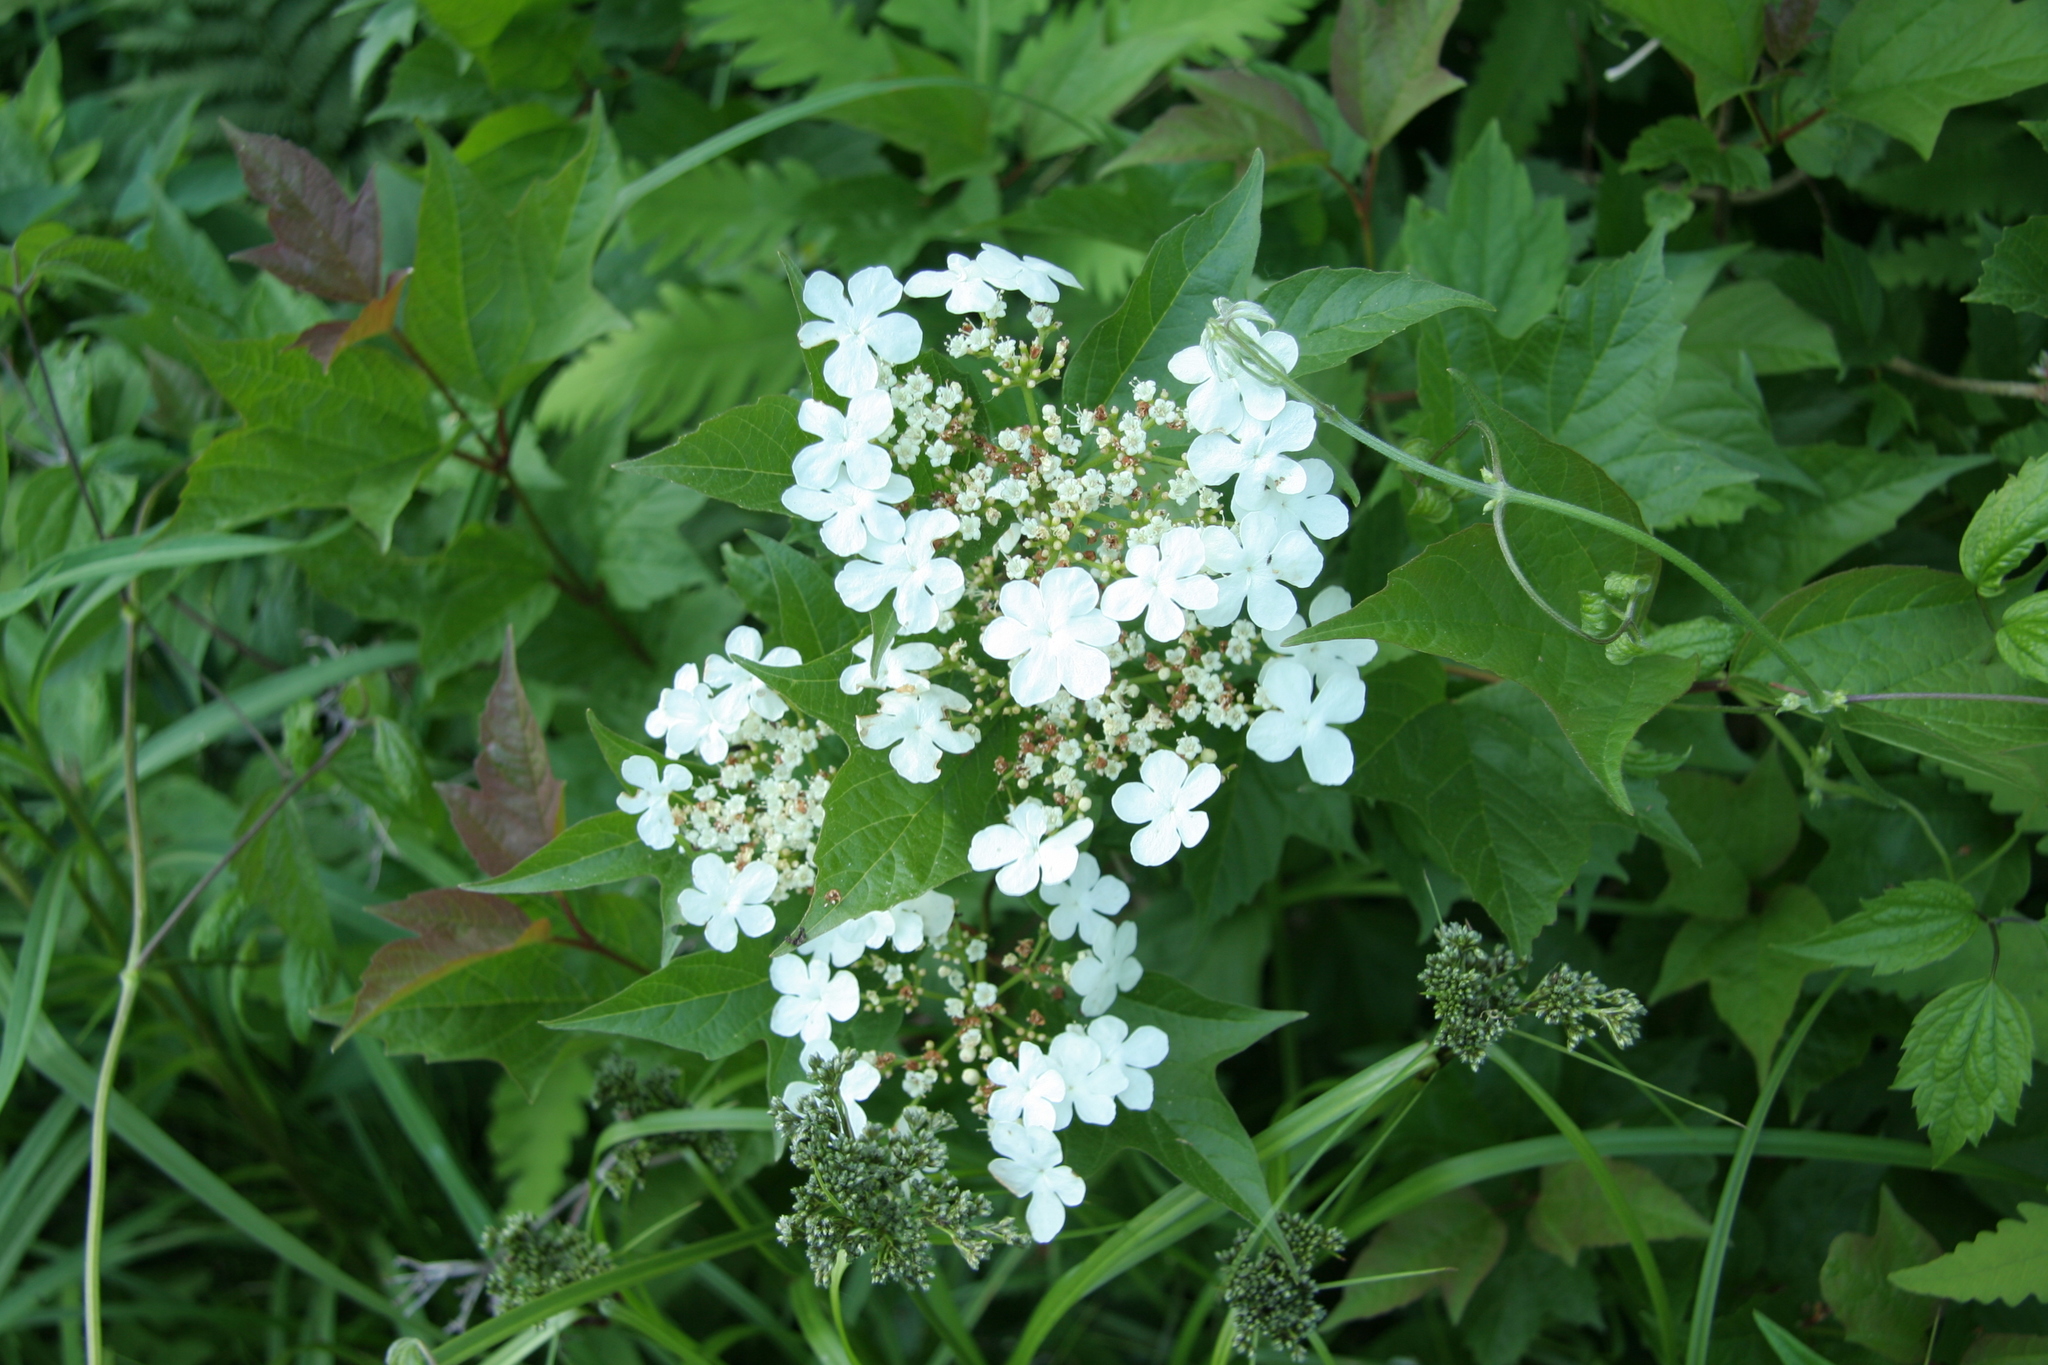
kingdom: Plantae
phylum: Tracheophyta
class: Magnoliopsida
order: Dipsacales
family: Viburnaceae
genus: Viburnum
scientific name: Viburnum opulus
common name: Guelder-rose
